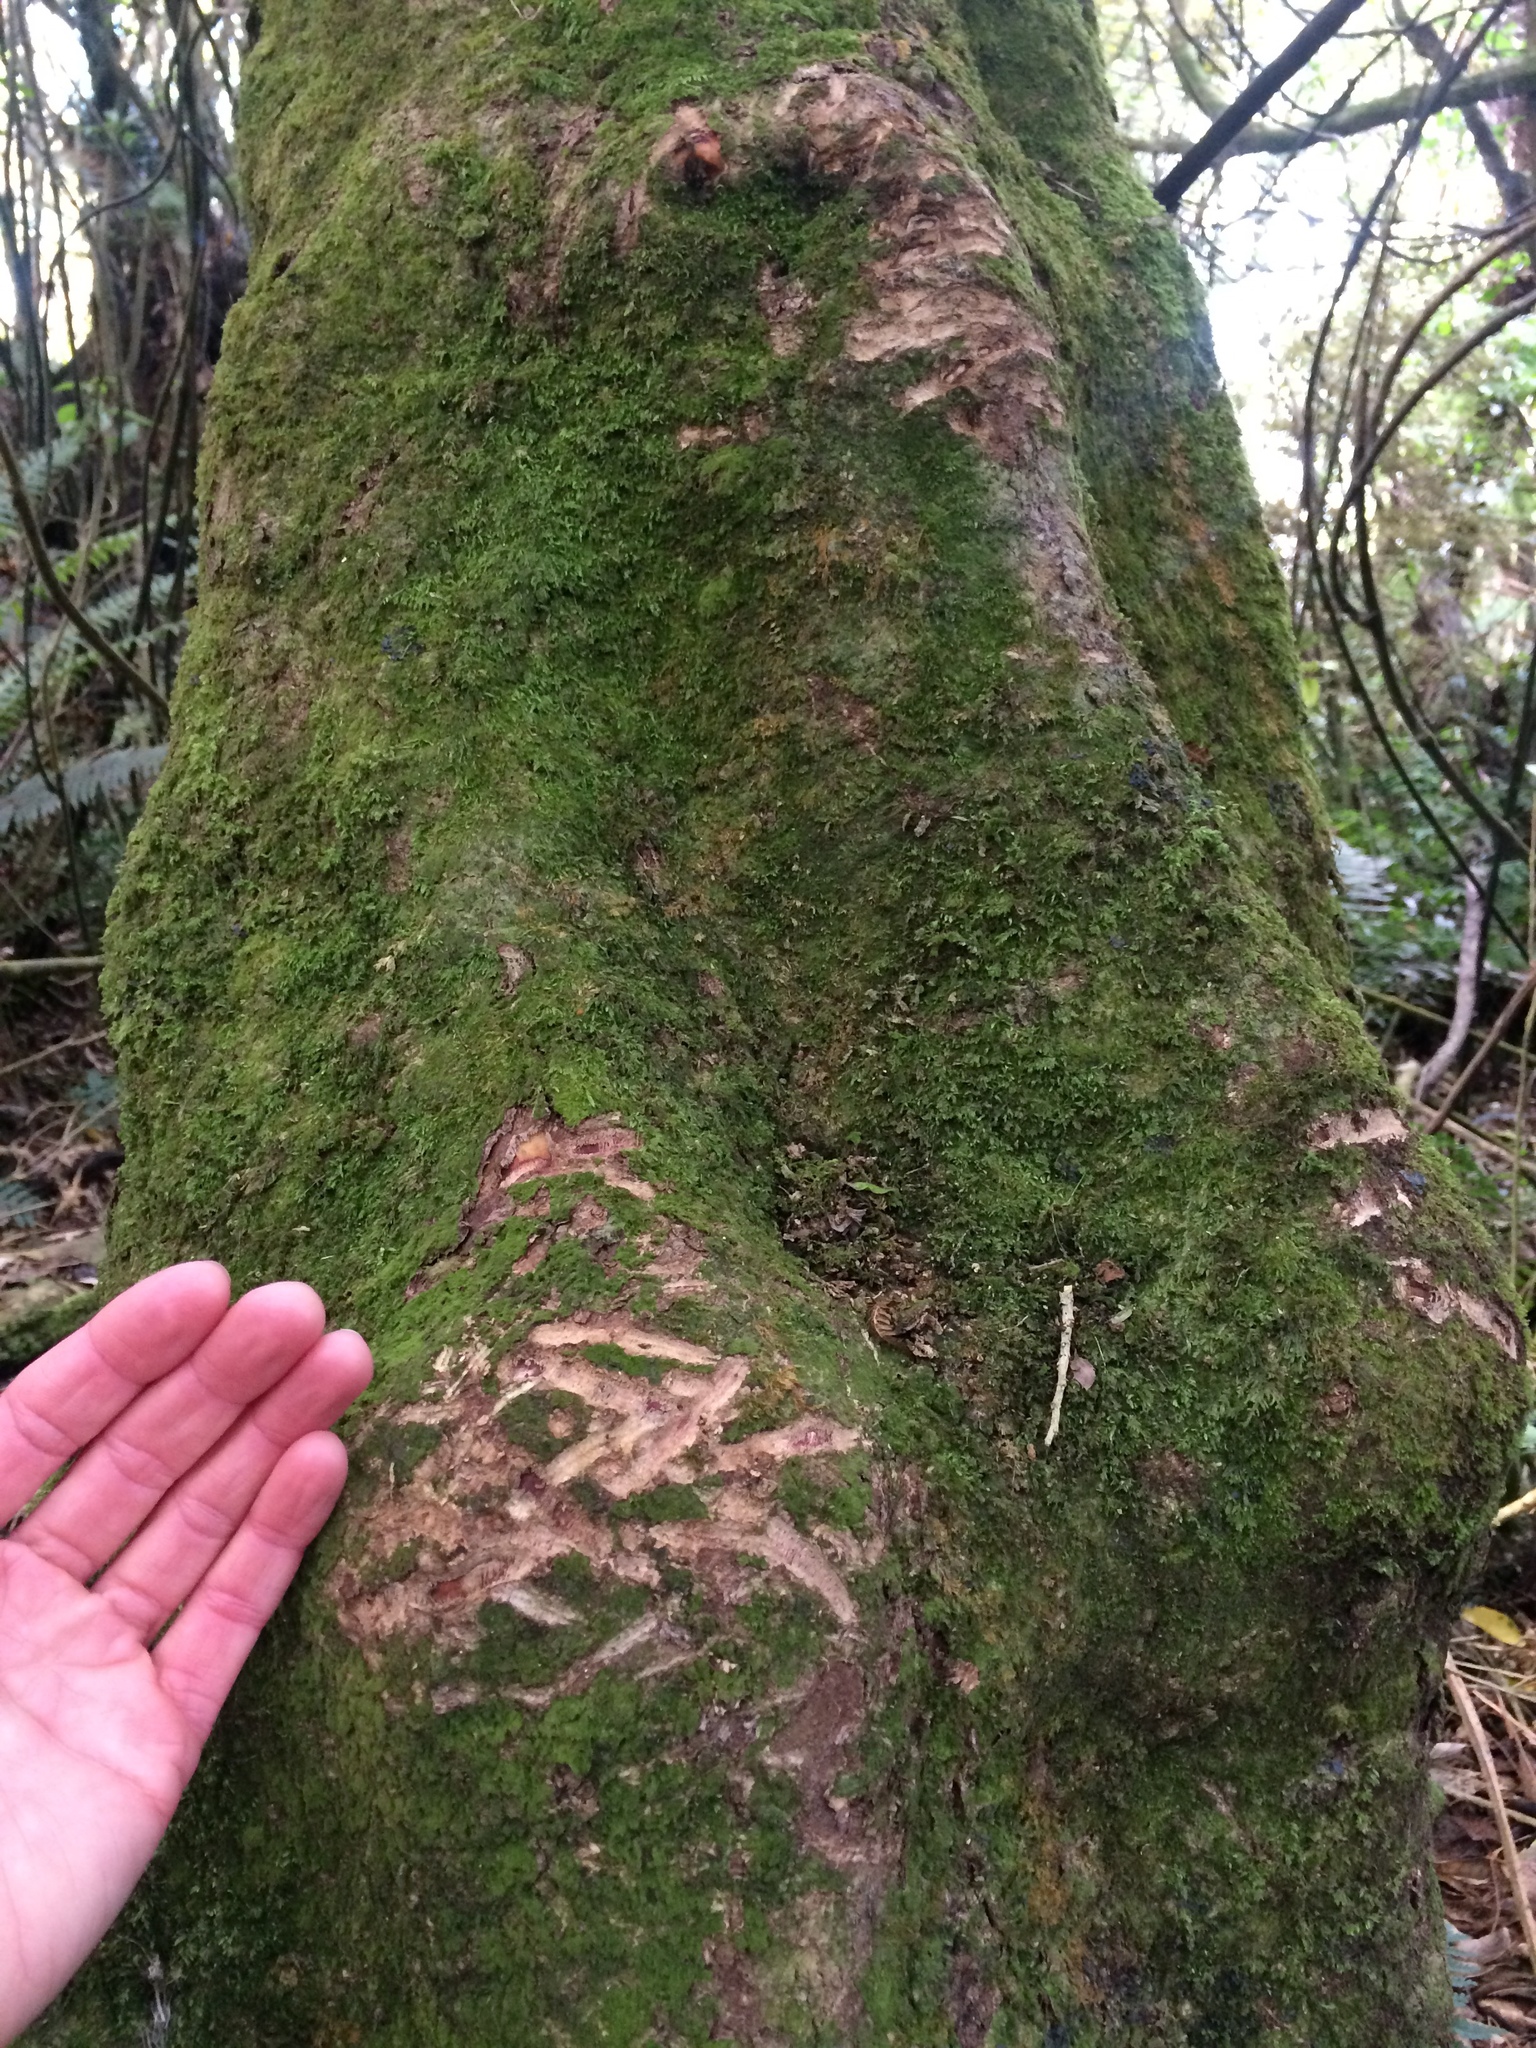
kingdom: Animalia
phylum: Chordata
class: Mammalia
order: Diprotodontia
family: Phalangeridae
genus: Trichosurus
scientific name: Trichosurus vulpecula
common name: Common brushtail
